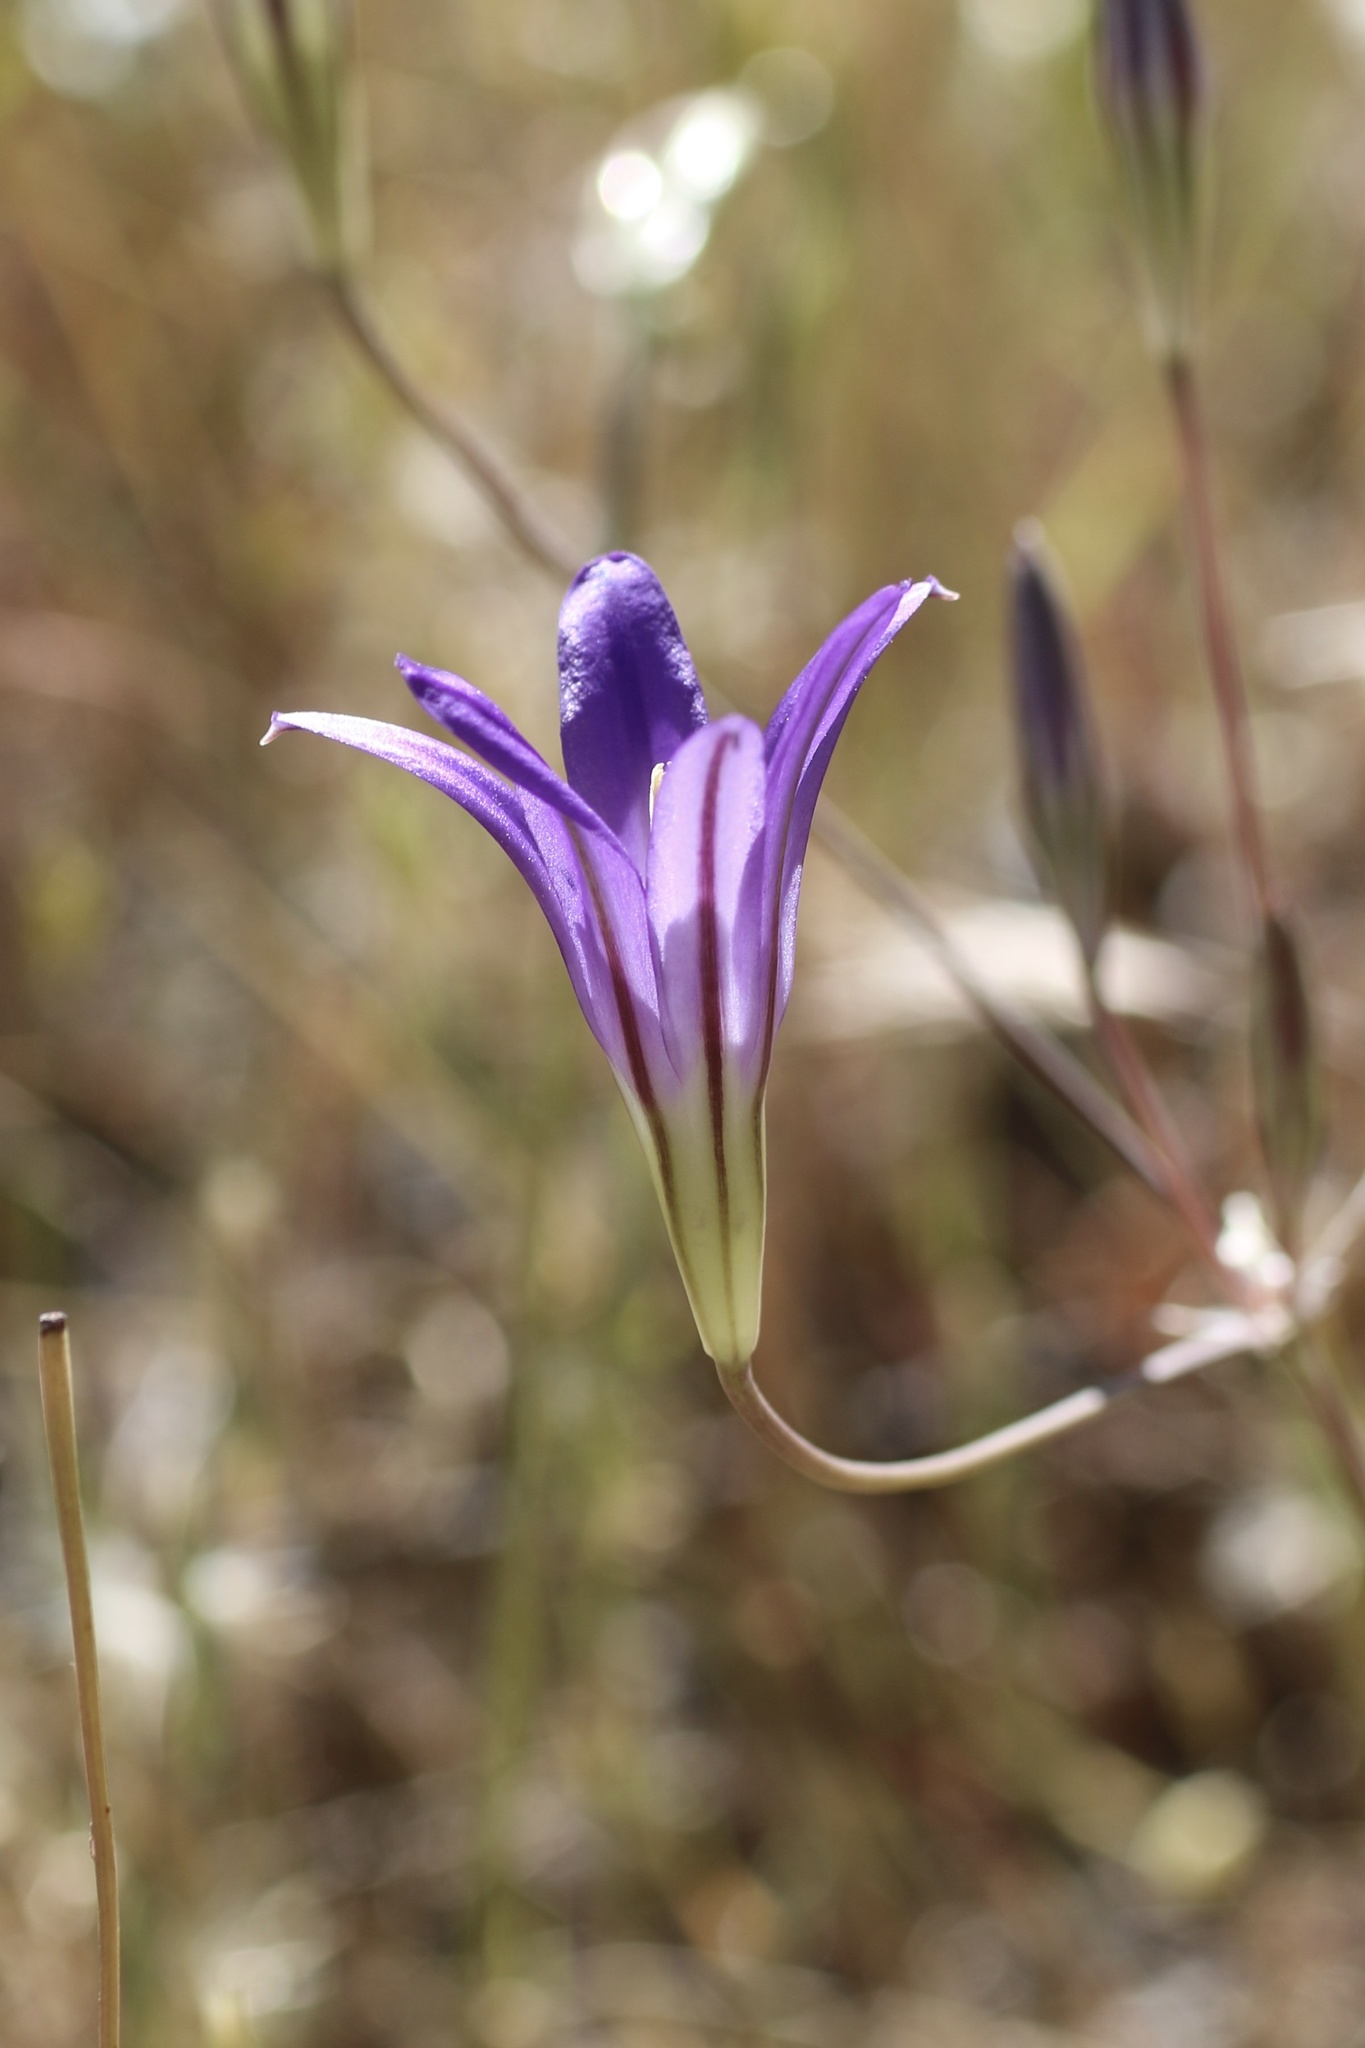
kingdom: Plantae
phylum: Tracheophyta
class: Liliopsida
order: Asparagales
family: Asparagaceae
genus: Brodiaea
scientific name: Brodiaea elegans
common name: Elegant cluster-lily
